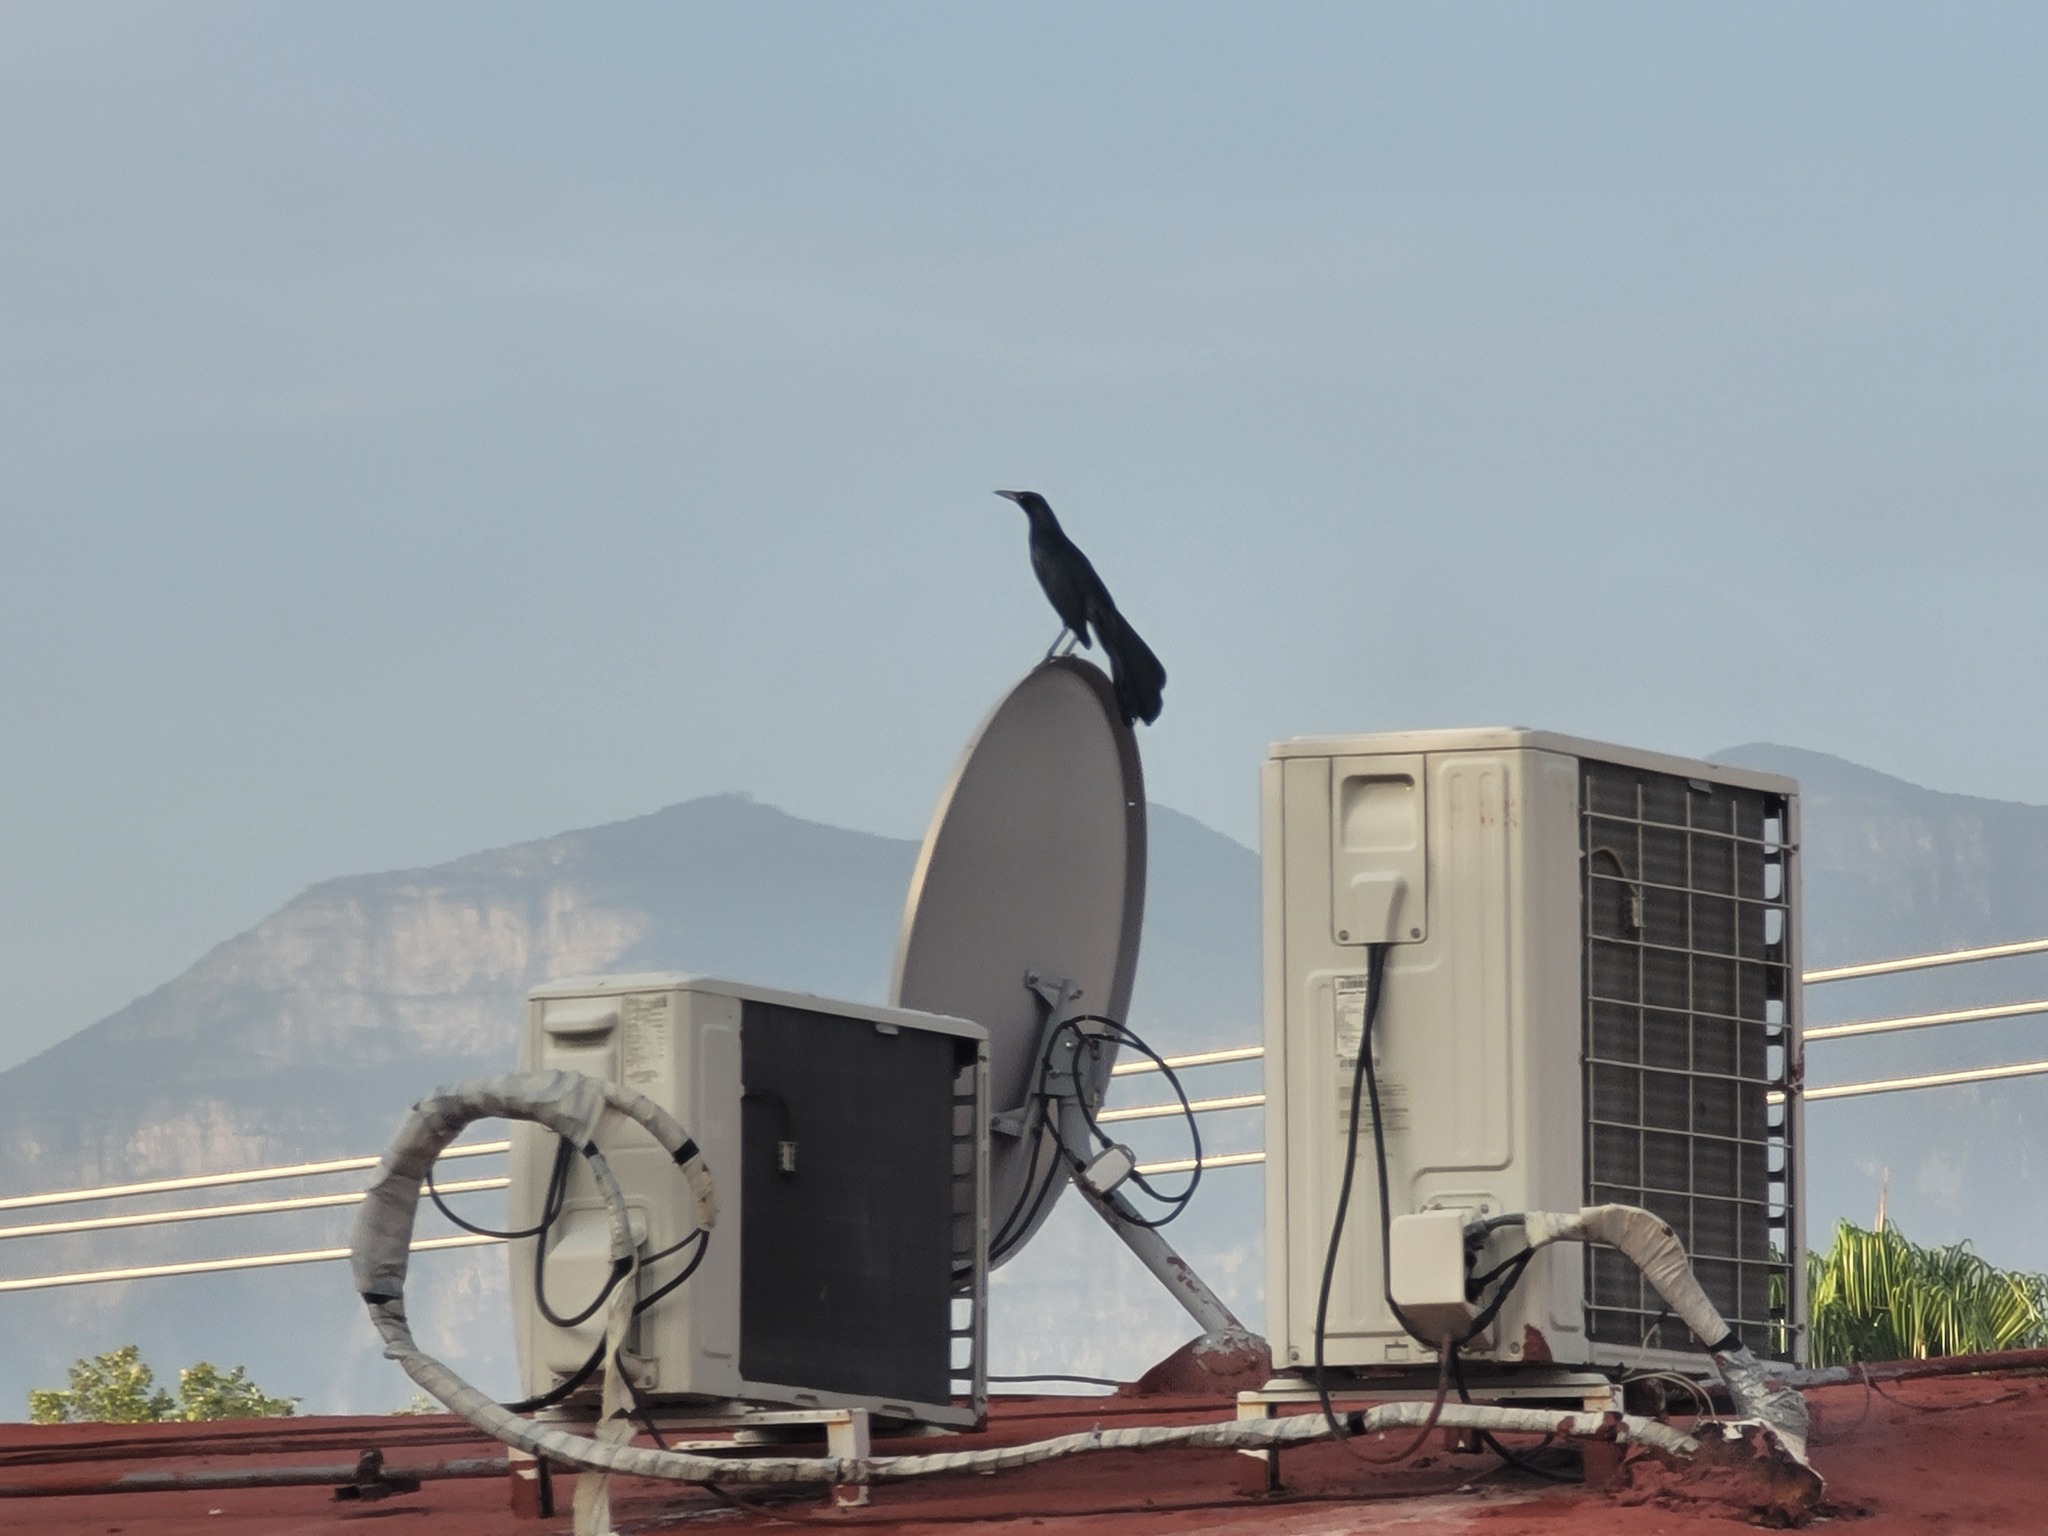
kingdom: Animalia
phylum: Chordata
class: Aves
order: Passeriformes
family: Icteridae
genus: Quiscalus
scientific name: Quiscalus mexicanus
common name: Great-tailed grackle
